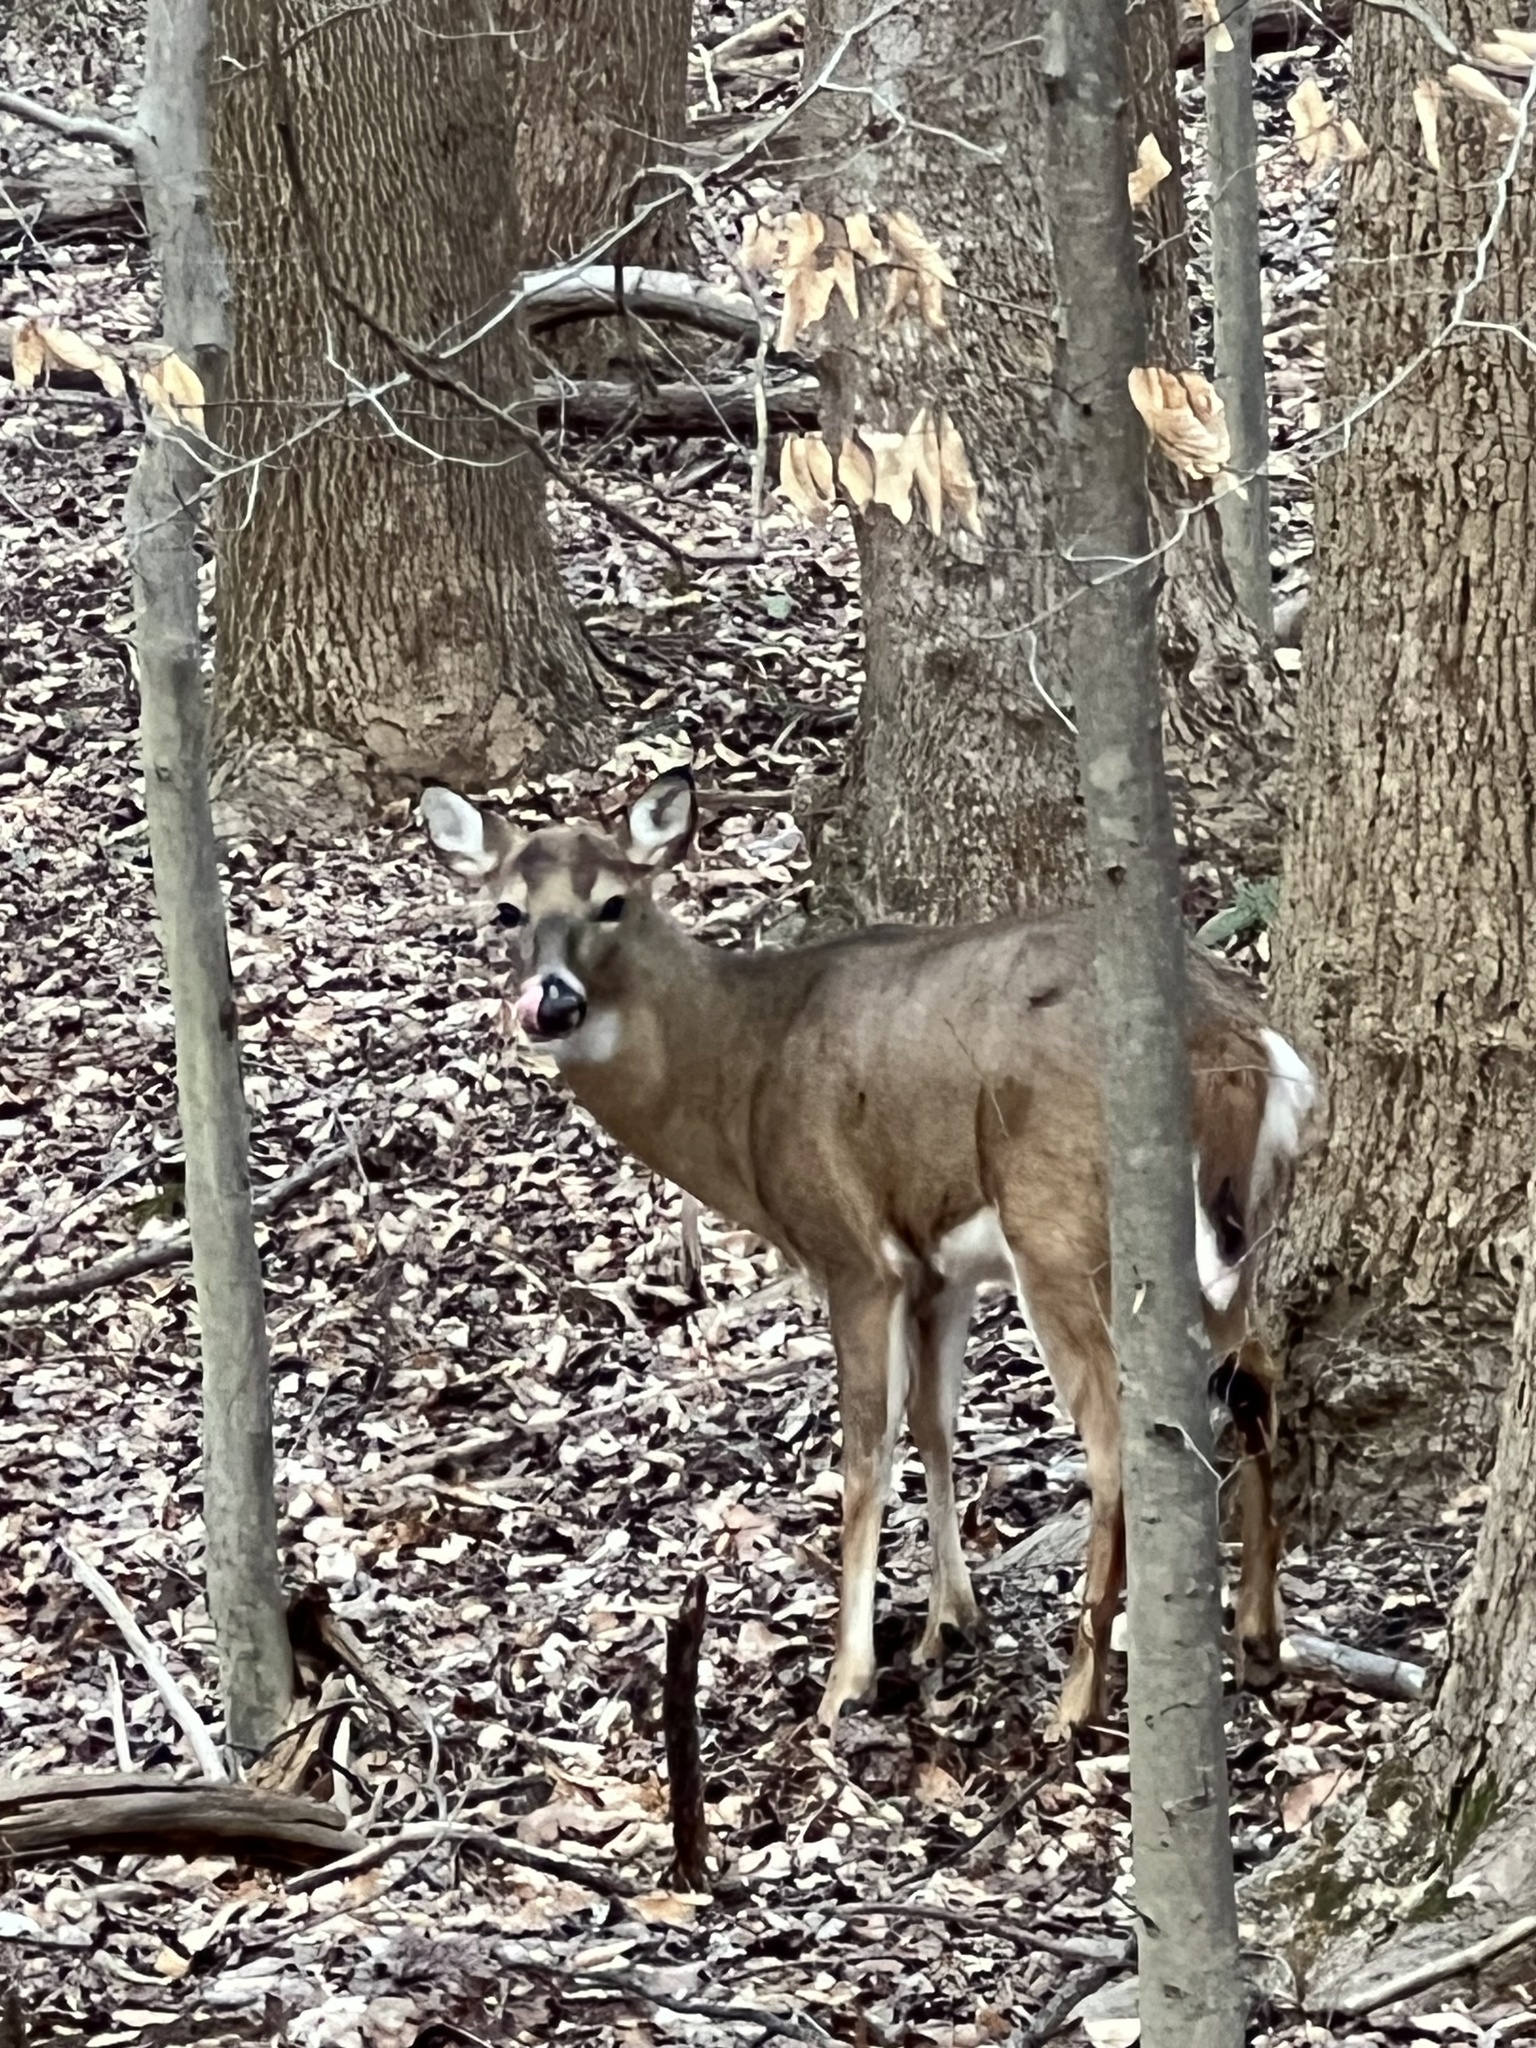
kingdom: Animalia
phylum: Chordata
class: Mammalia
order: Artiodactyla
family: Cervidae
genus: Odocoileus
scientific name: Odocoileus virginianus
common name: White-tailed deer
